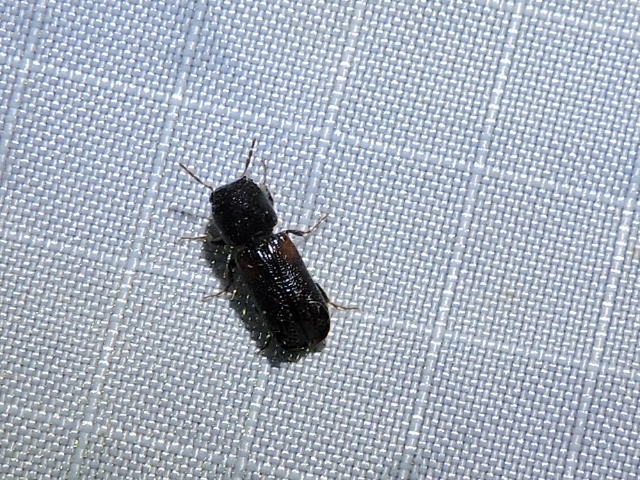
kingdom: Animalia
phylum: Arthropoda
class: Insecta
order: Coleoptera
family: Bostrichidae
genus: Xylobiops
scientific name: Xylobiops basilaris
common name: Red-shouldered bostrichid
